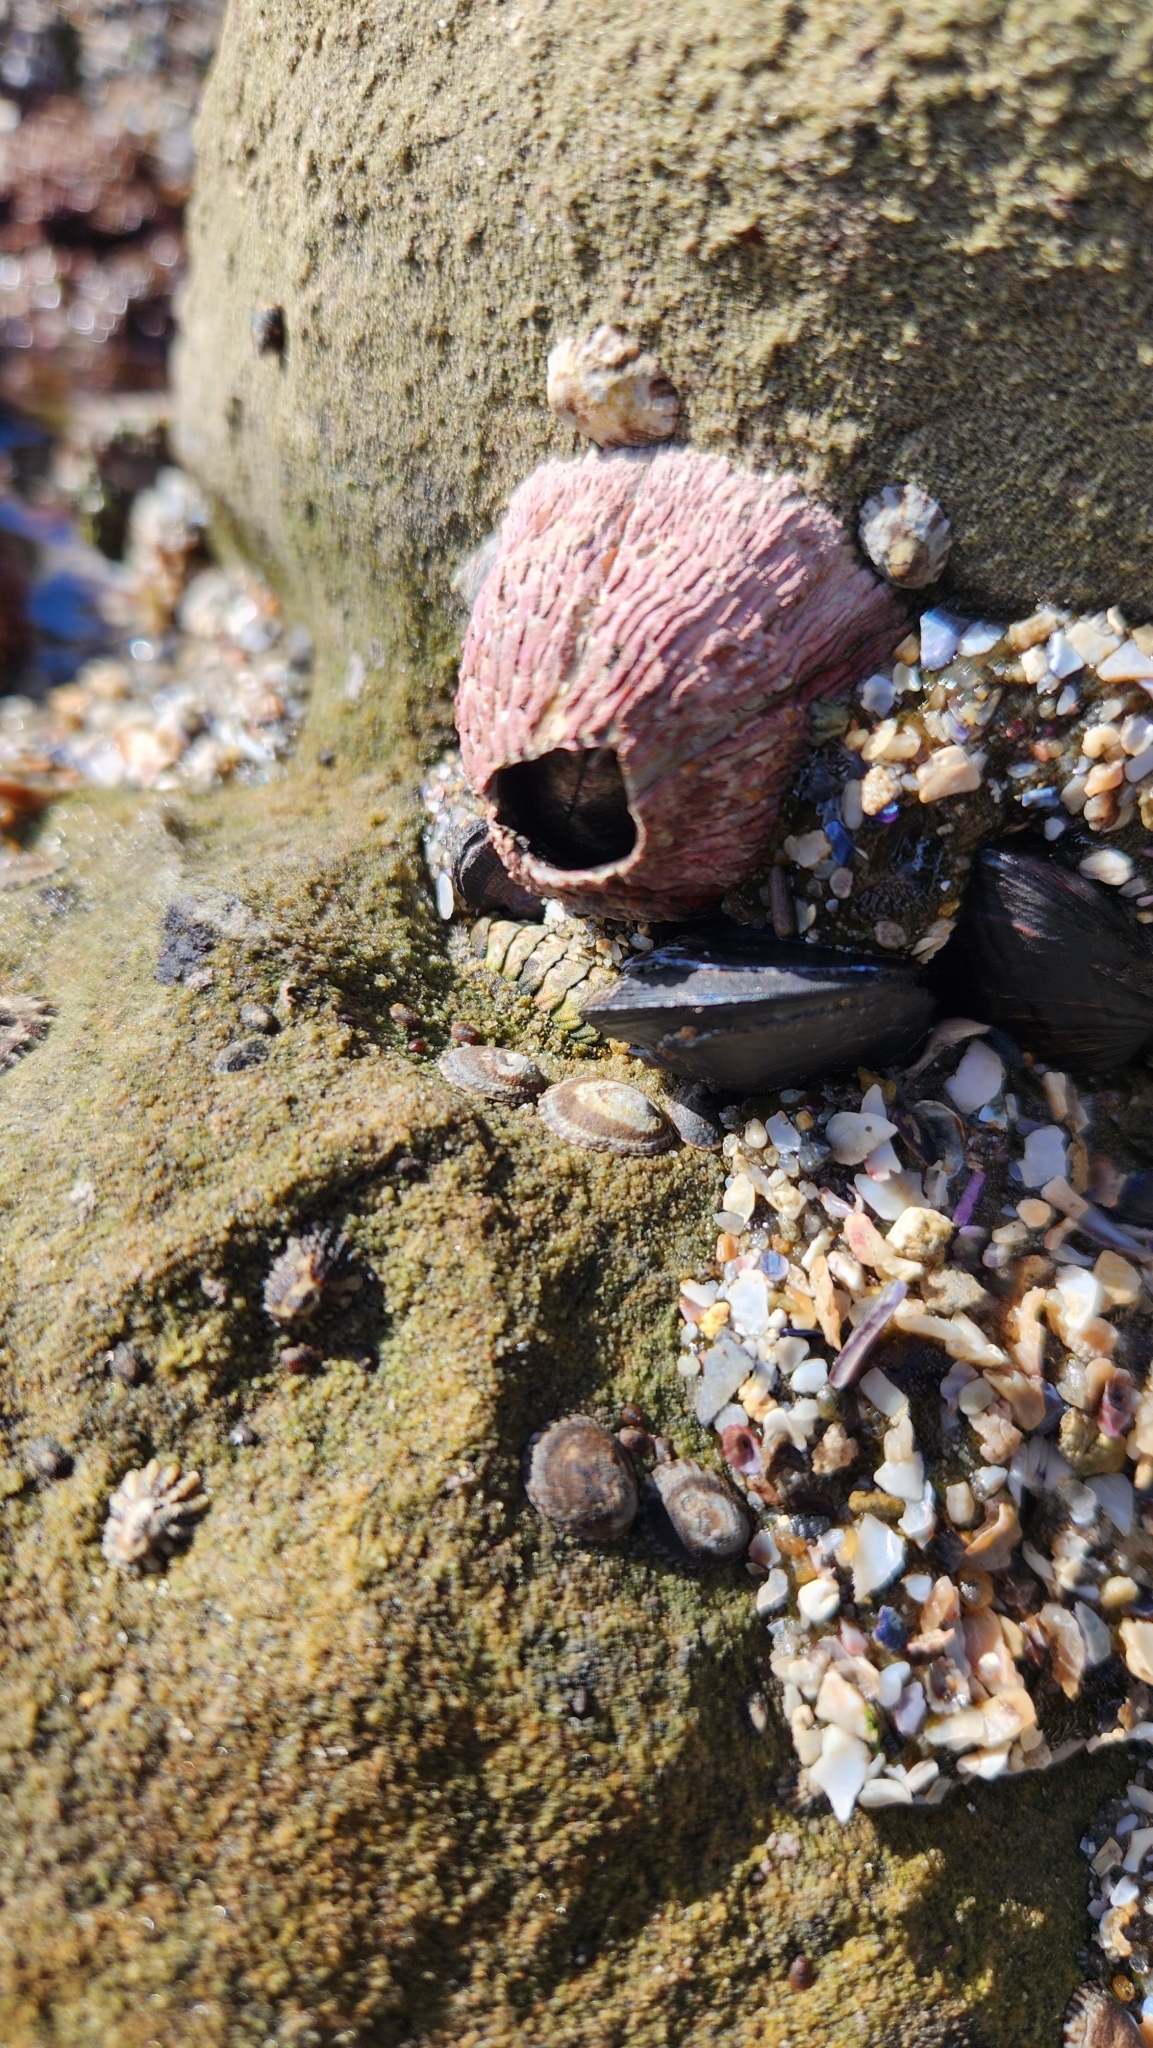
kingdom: Animalia
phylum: Arthropoda
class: Maxillopoda
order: Sessilia
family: Tetraclitidae
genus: Tetraclita
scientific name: Tetraclita rubescens
